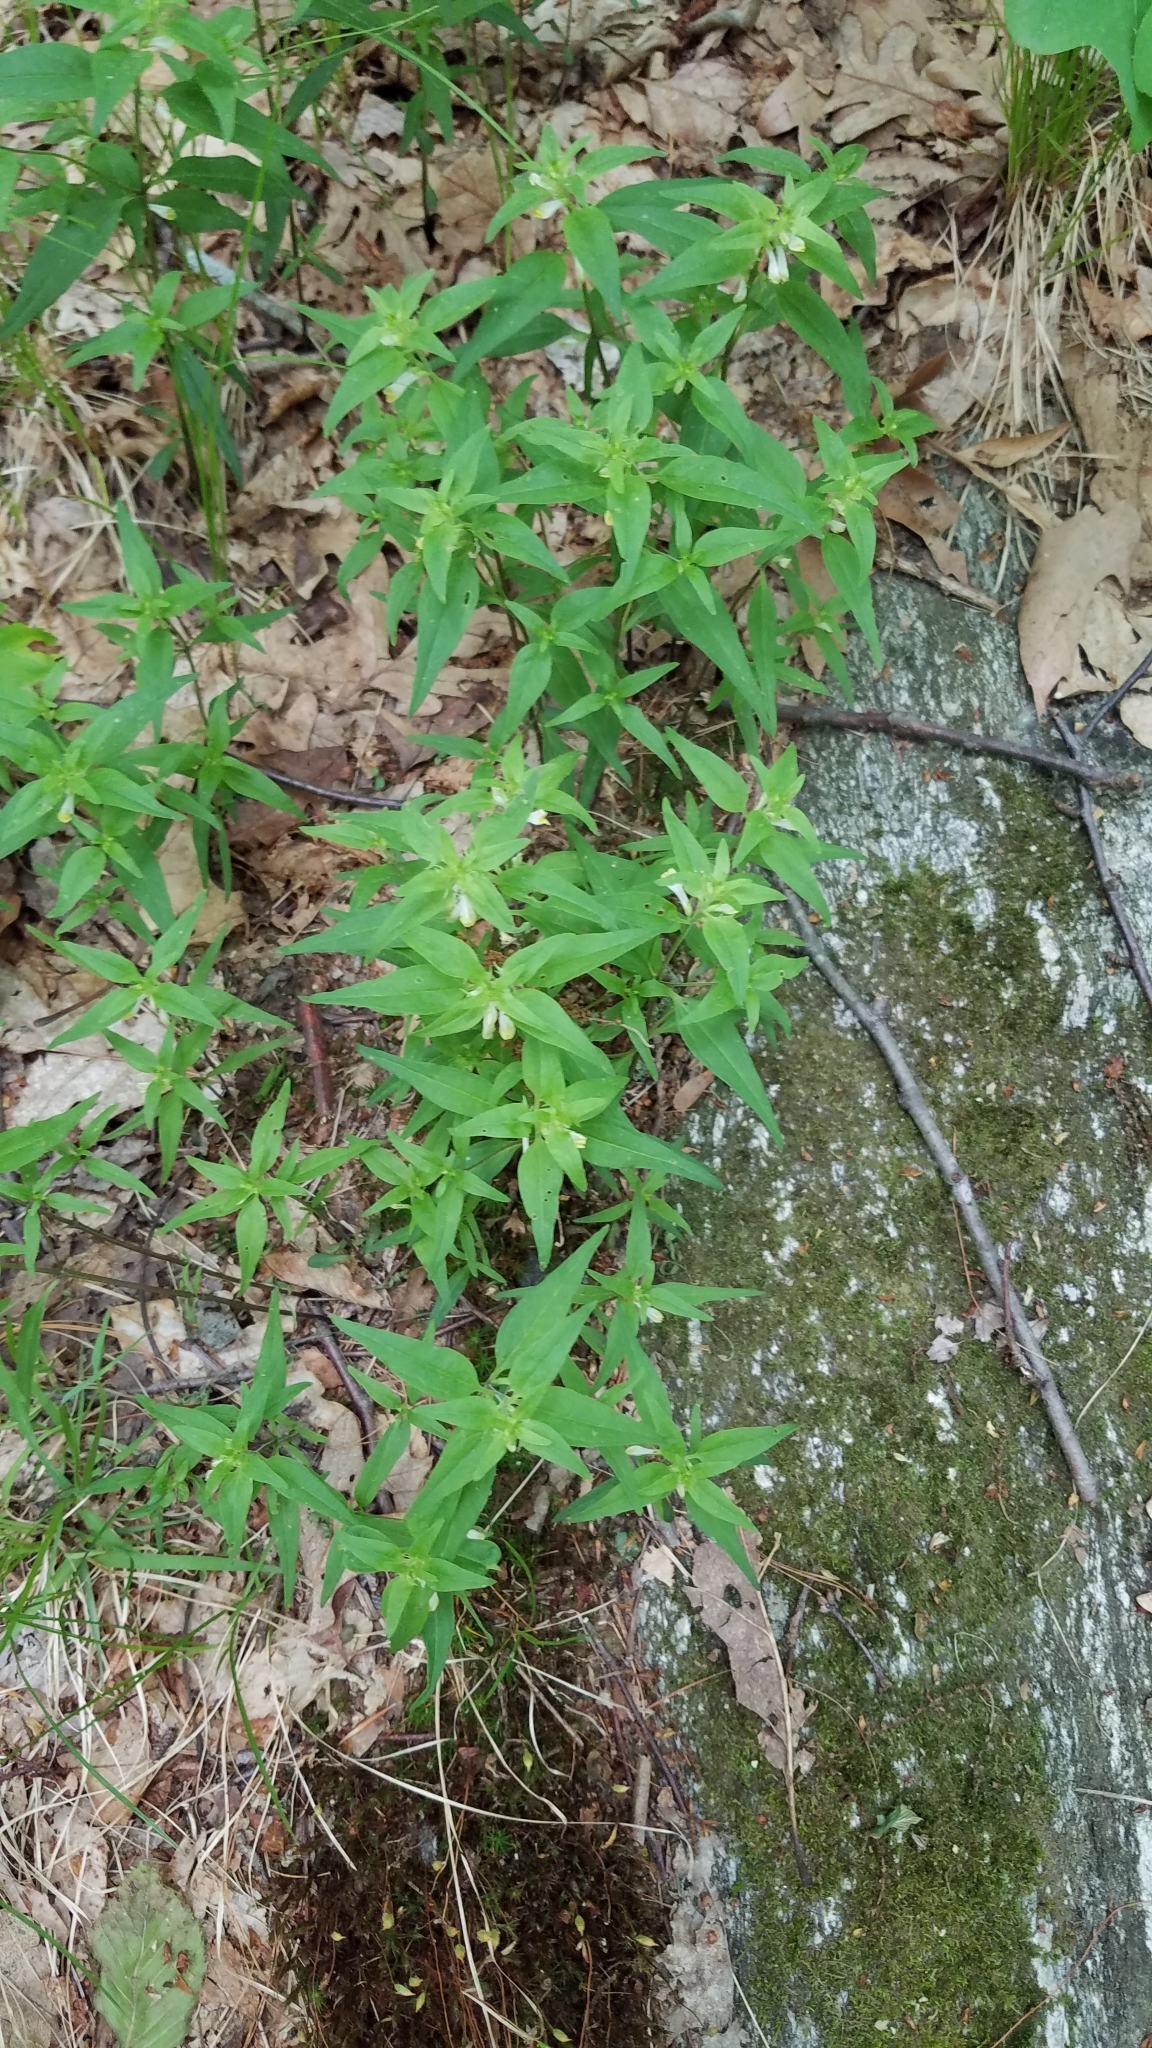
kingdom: Plantae
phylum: Tracheophyta
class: Magnoliopsida
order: Lamiales
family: Orobanchaceae
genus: Melampyrum
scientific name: Melampyrum lineare
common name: American cow-wheat
